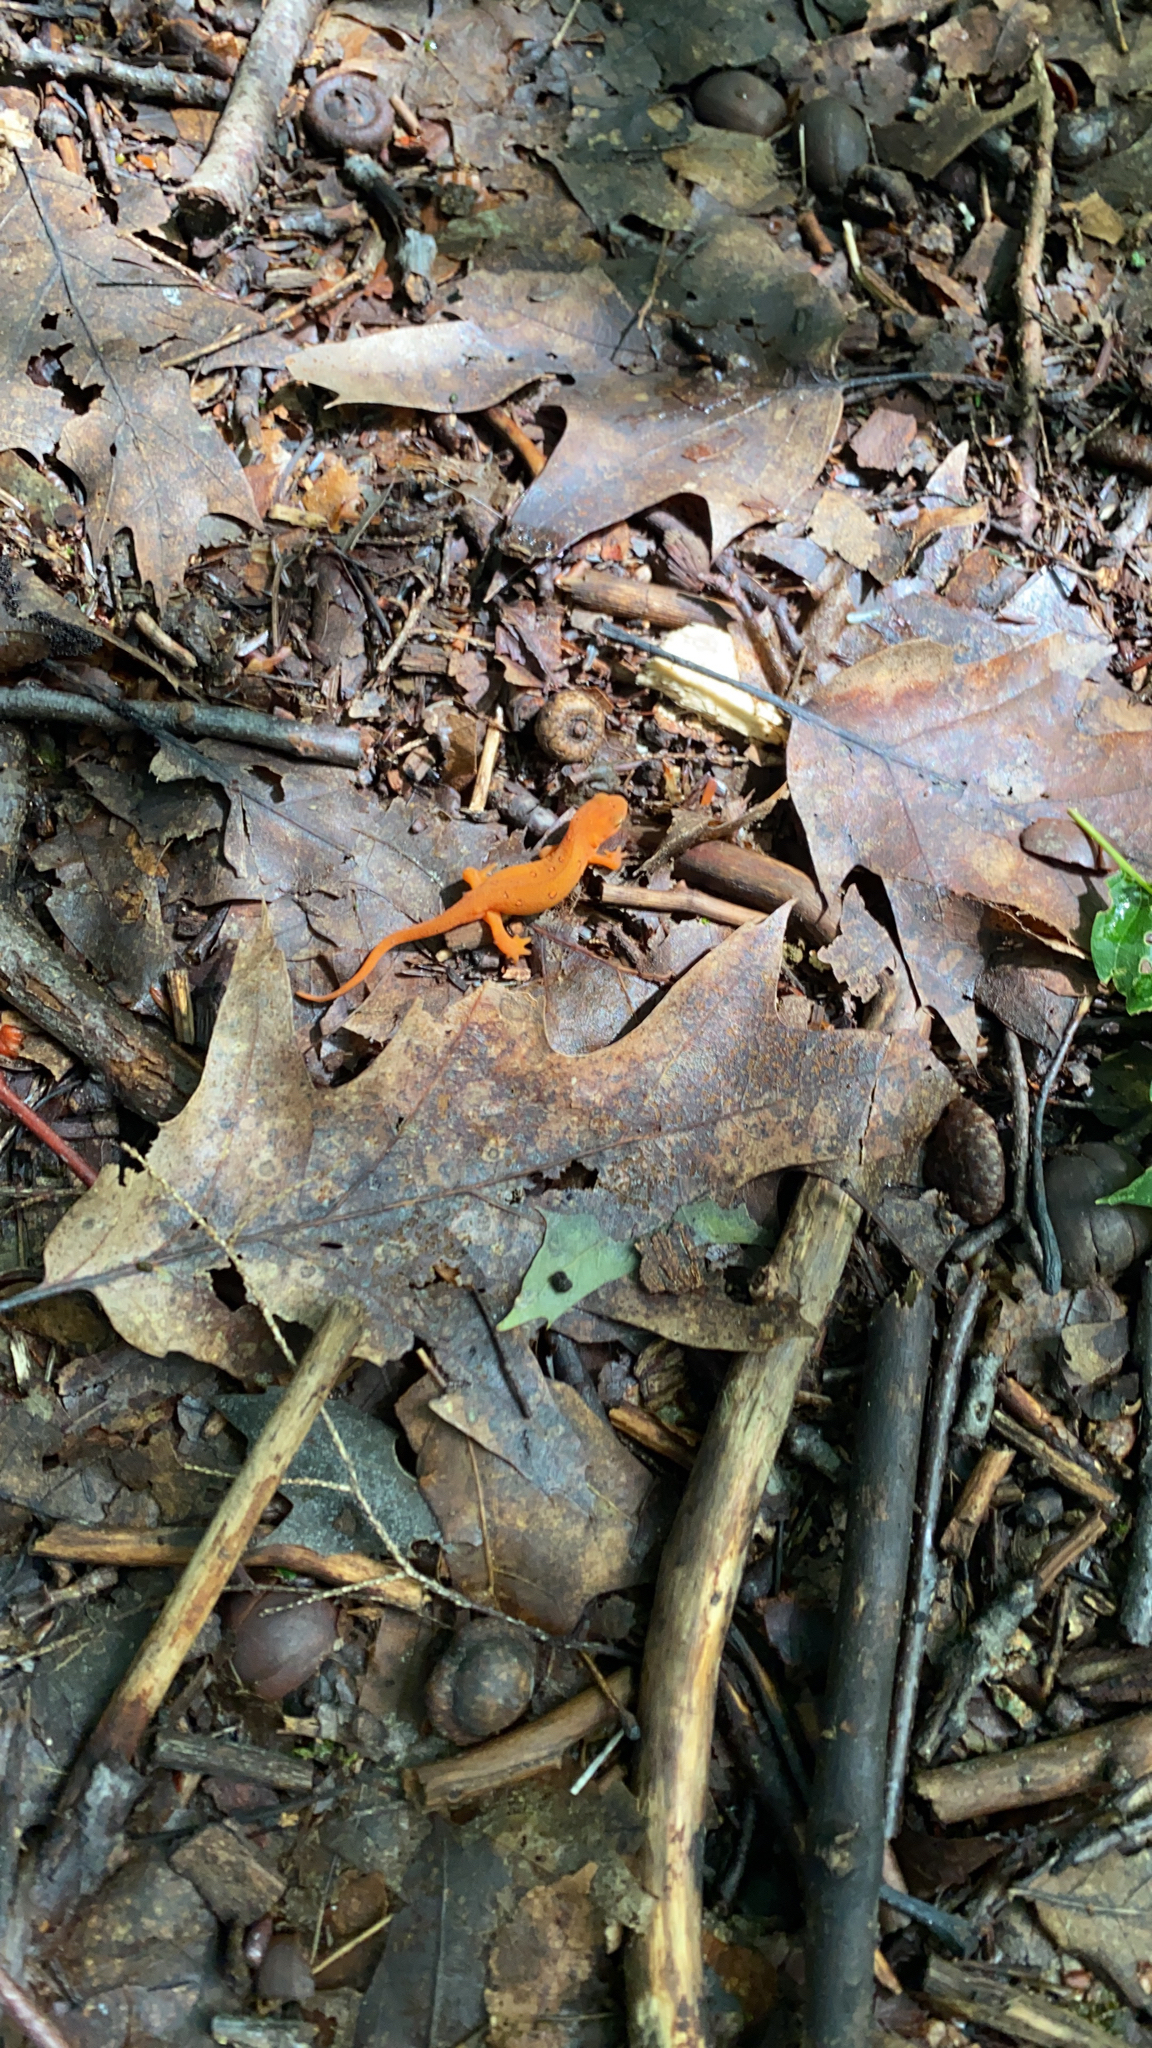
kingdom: Animalia
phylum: Chordata
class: Amphibia
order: Caudata
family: Salamandridae
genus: Notophthalmus
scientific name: Notophthalmus viridescens
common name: Eastern newt
